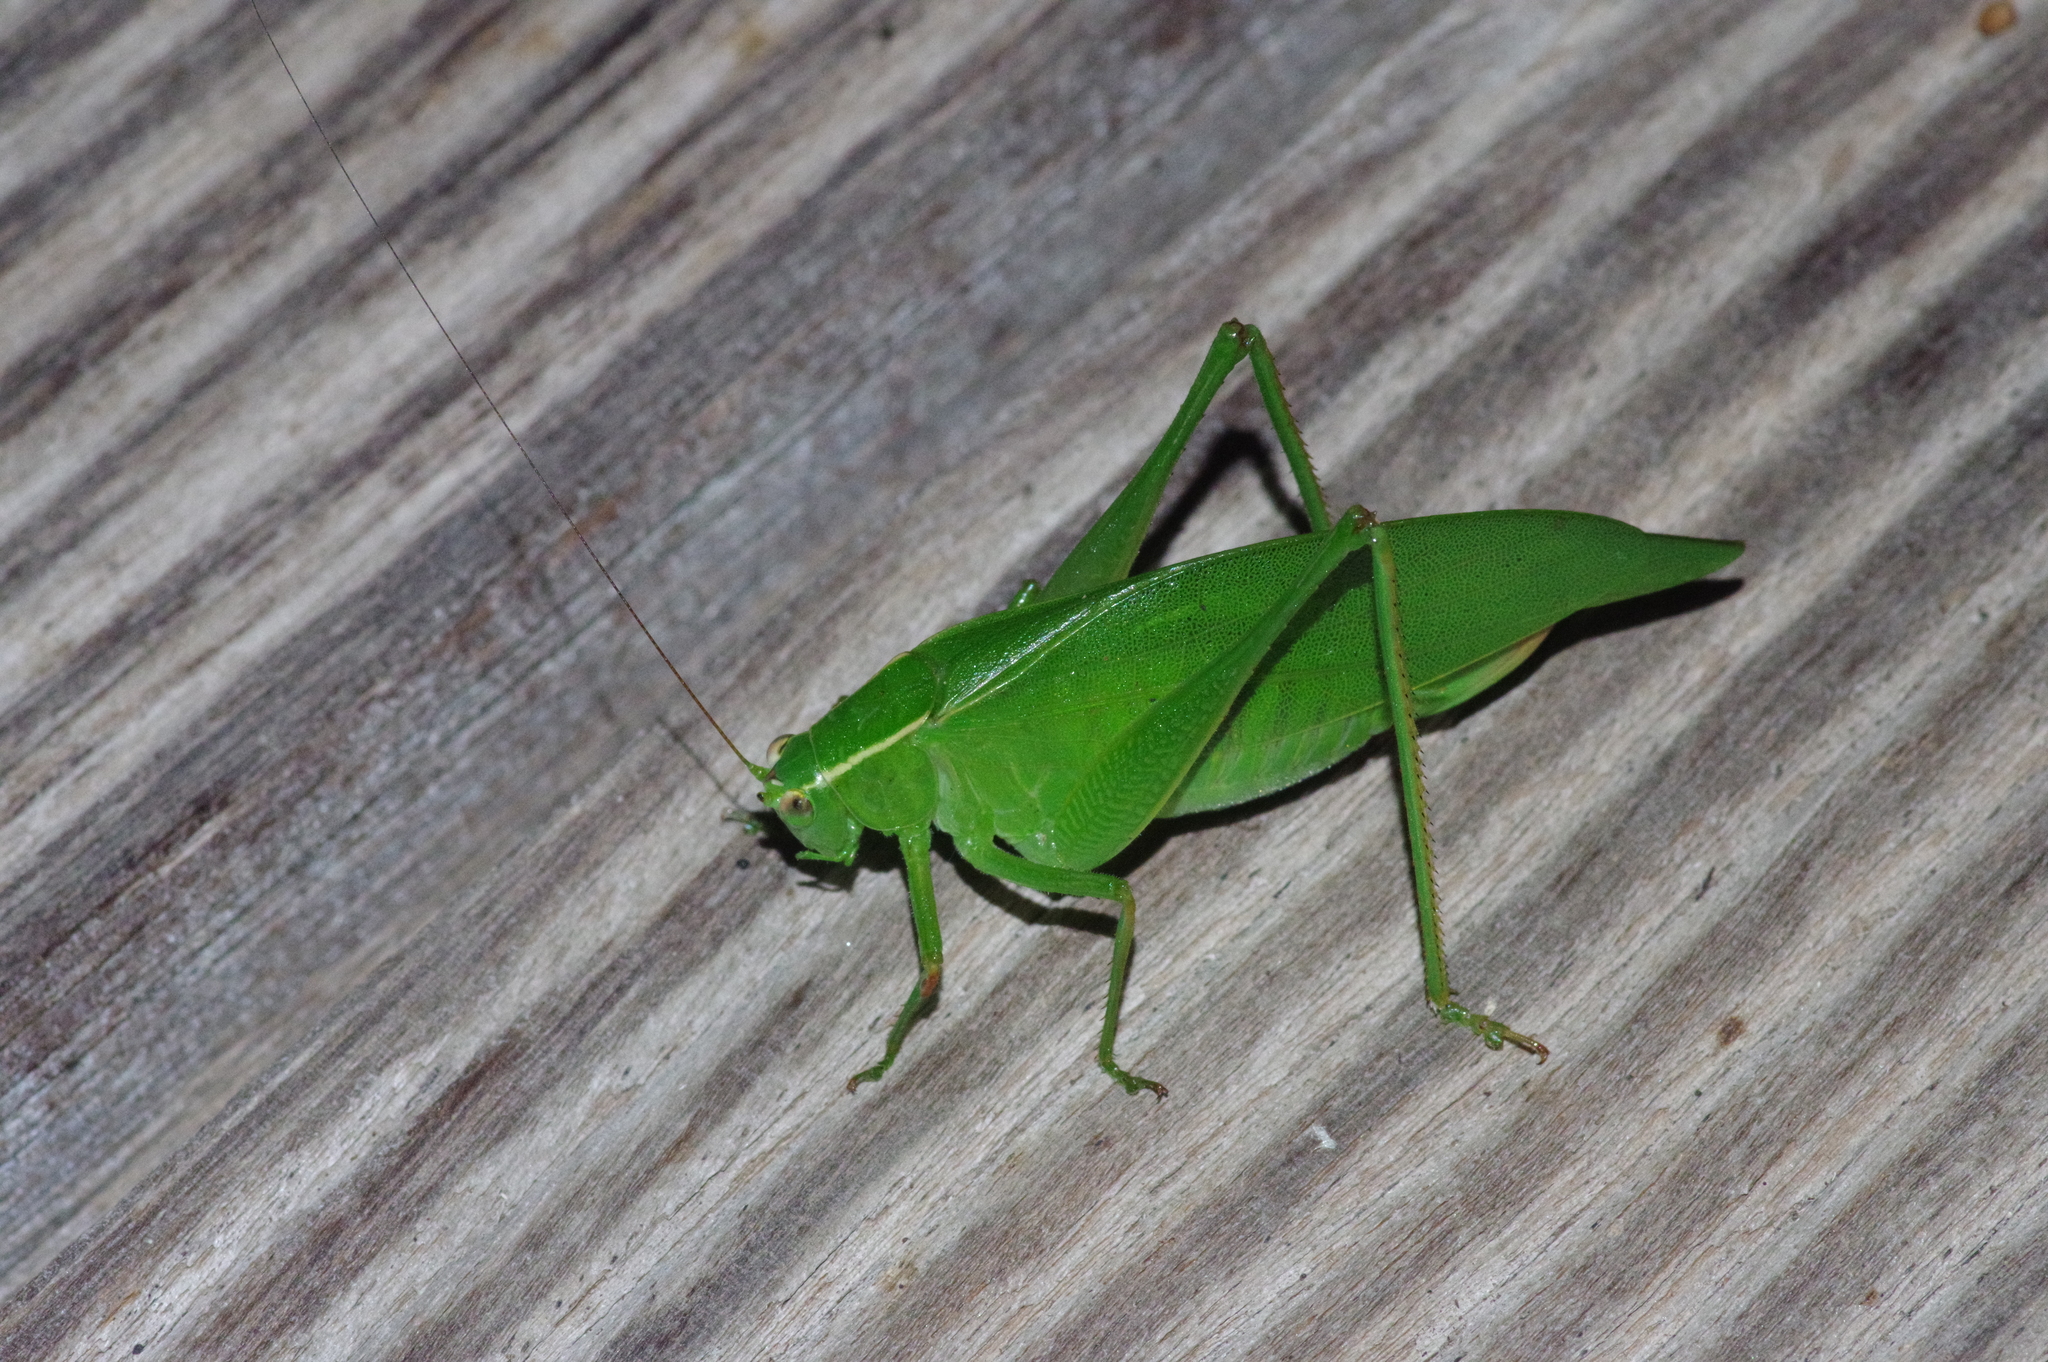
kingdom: Animalia
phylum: Arthropoda
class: Insecta
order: Orthoptera
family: Tettigoniidae
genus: Isopsera
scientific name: Isopsera denticulata
